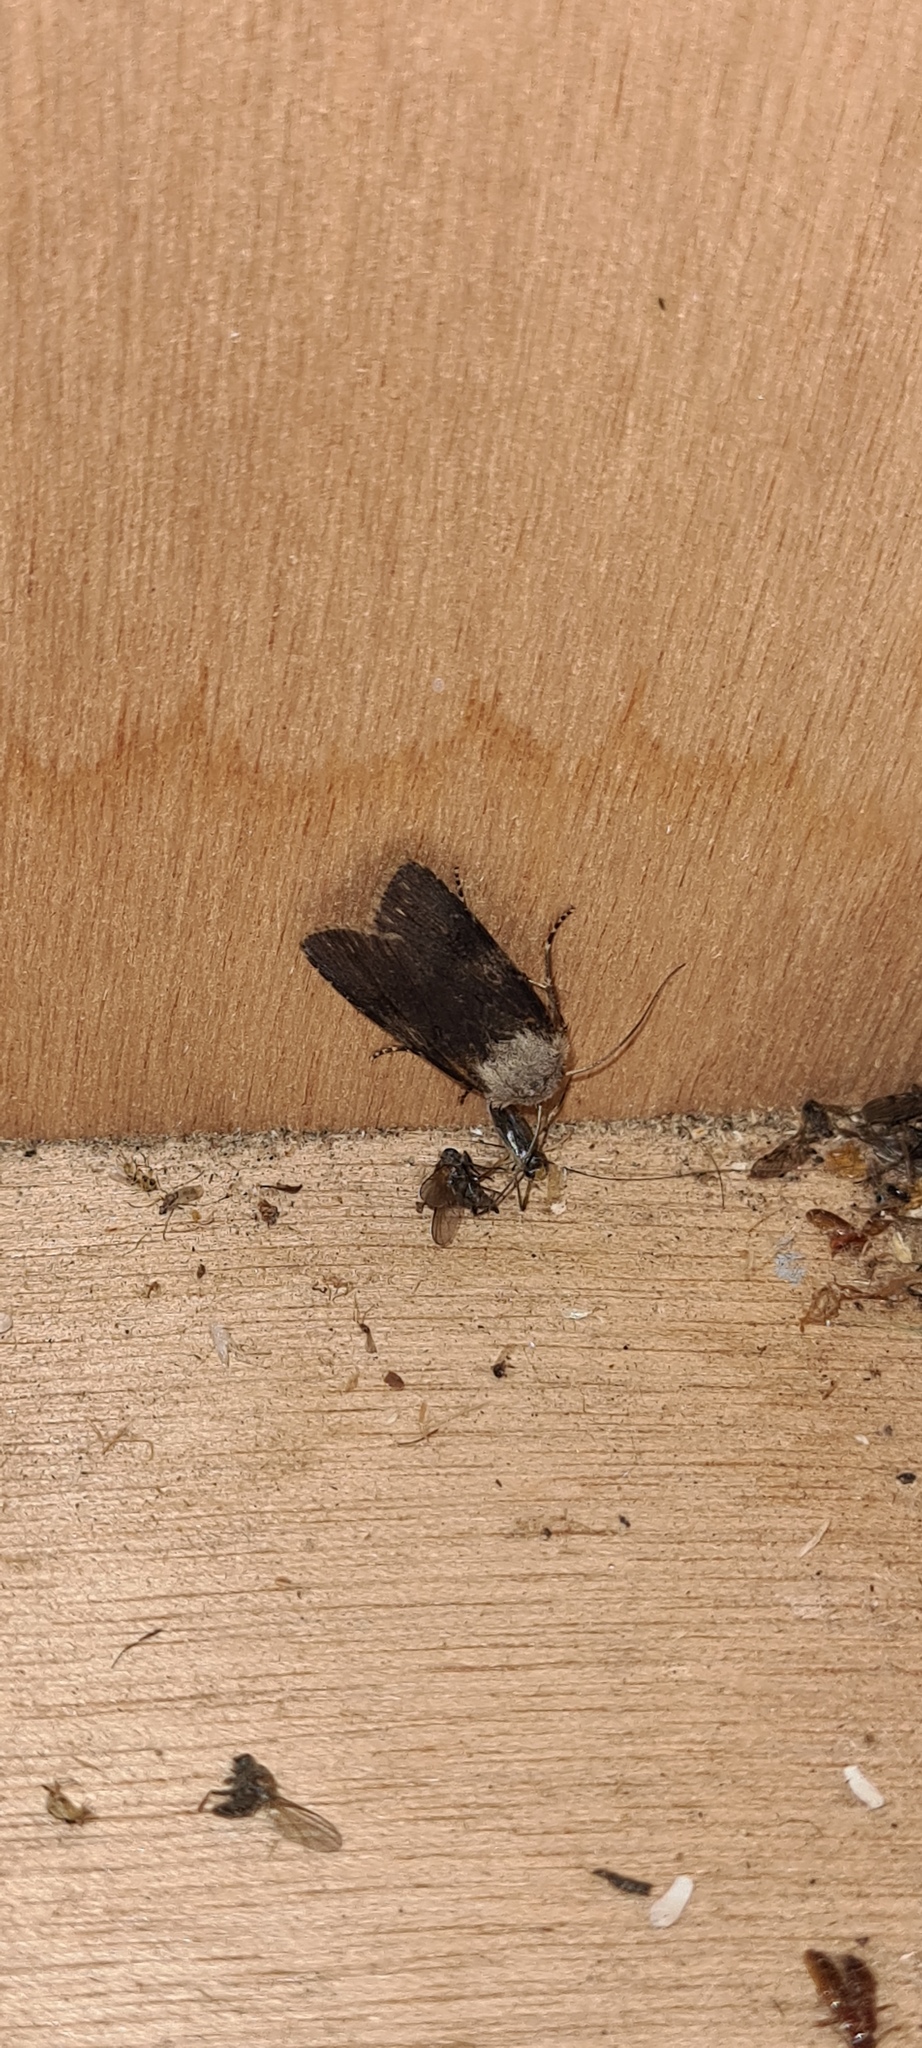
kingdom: Animalia
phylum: Arthropoda
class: Insecta
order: Lepidoptera
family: Noctuidae
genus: Agrotis
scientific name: Agrotis puta
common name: Shuttle-shaped dart
